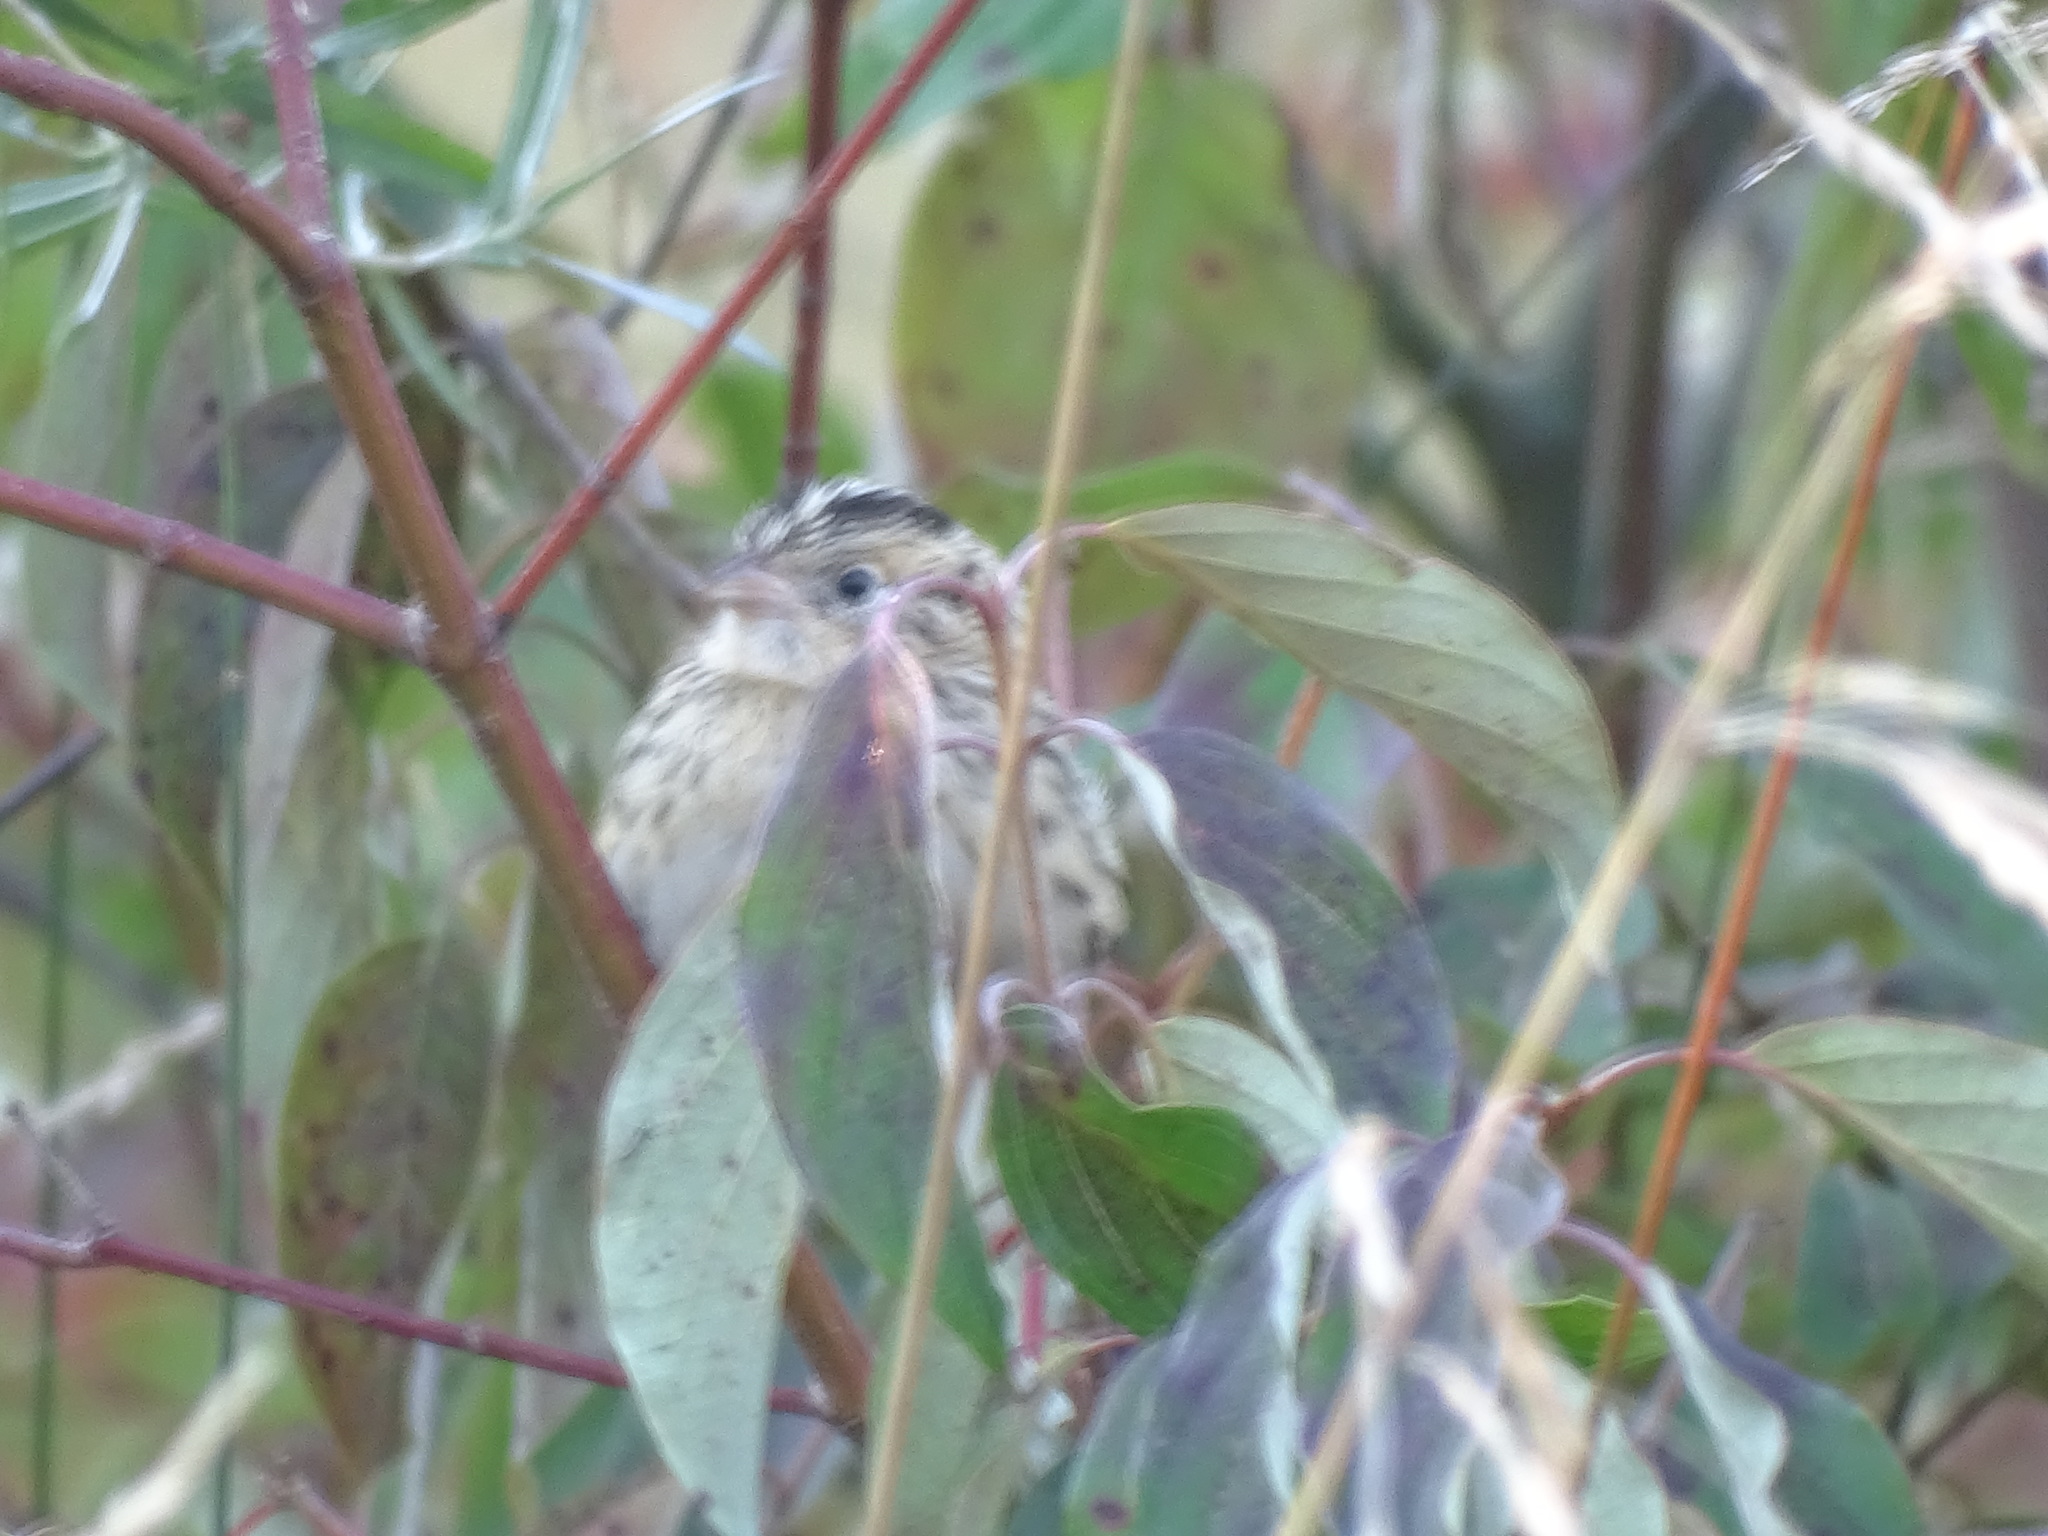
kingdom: Animalia
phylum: Chordata
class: Aves
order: Passeriformes
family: Passerellidae
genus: Ammospiza
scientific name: Ammospiza leconteii
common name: Le conte's sparrow
